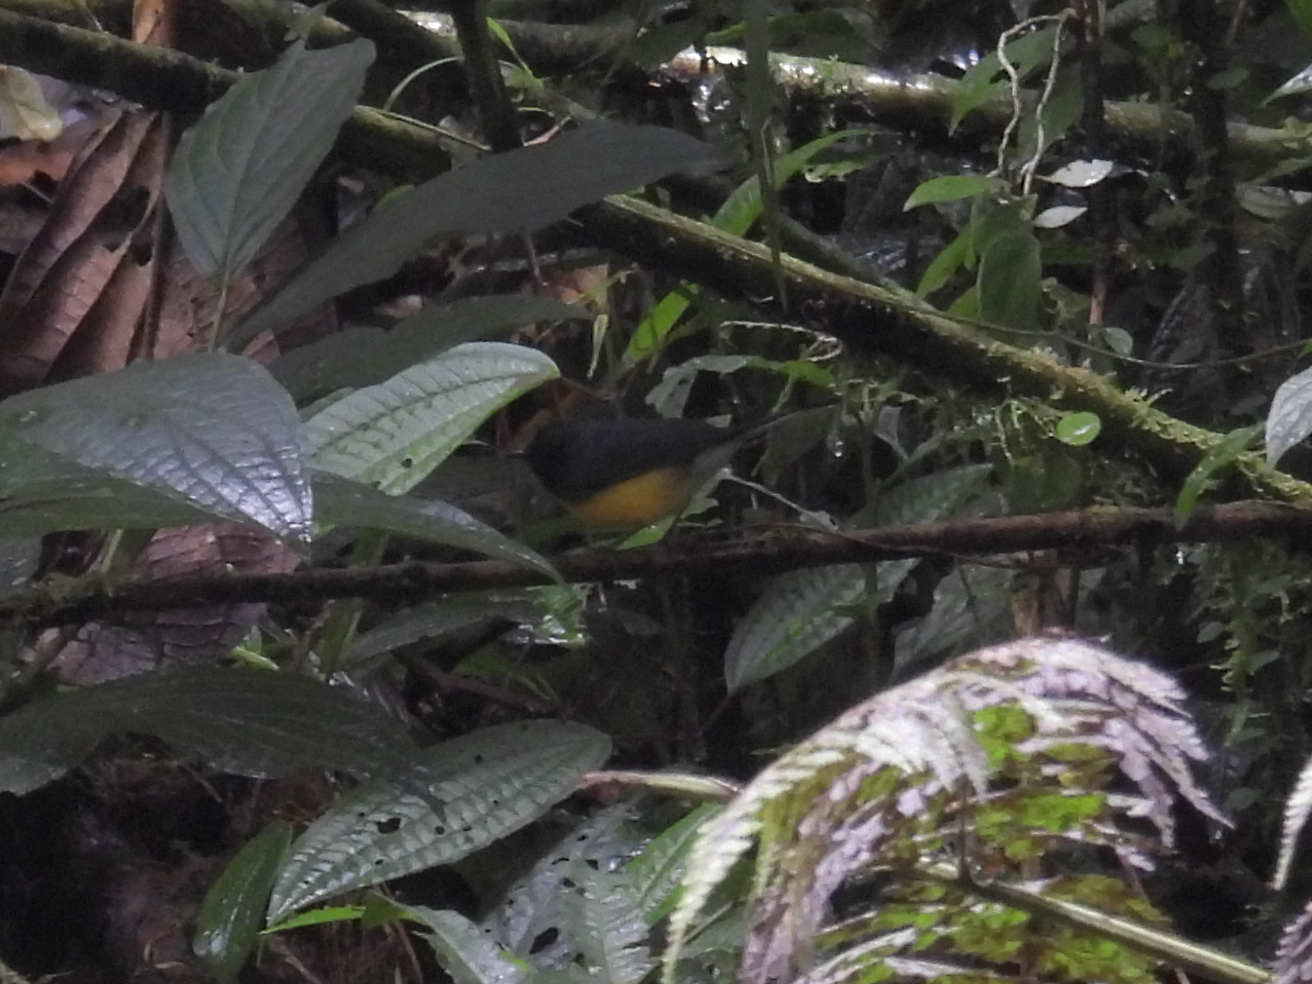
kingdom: Animalia
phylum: Chordata
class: Aves
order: Passeriformes
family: Parulidae
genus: Myioborus
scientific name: Myioborus miniatus
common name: Slate-throated redstart
